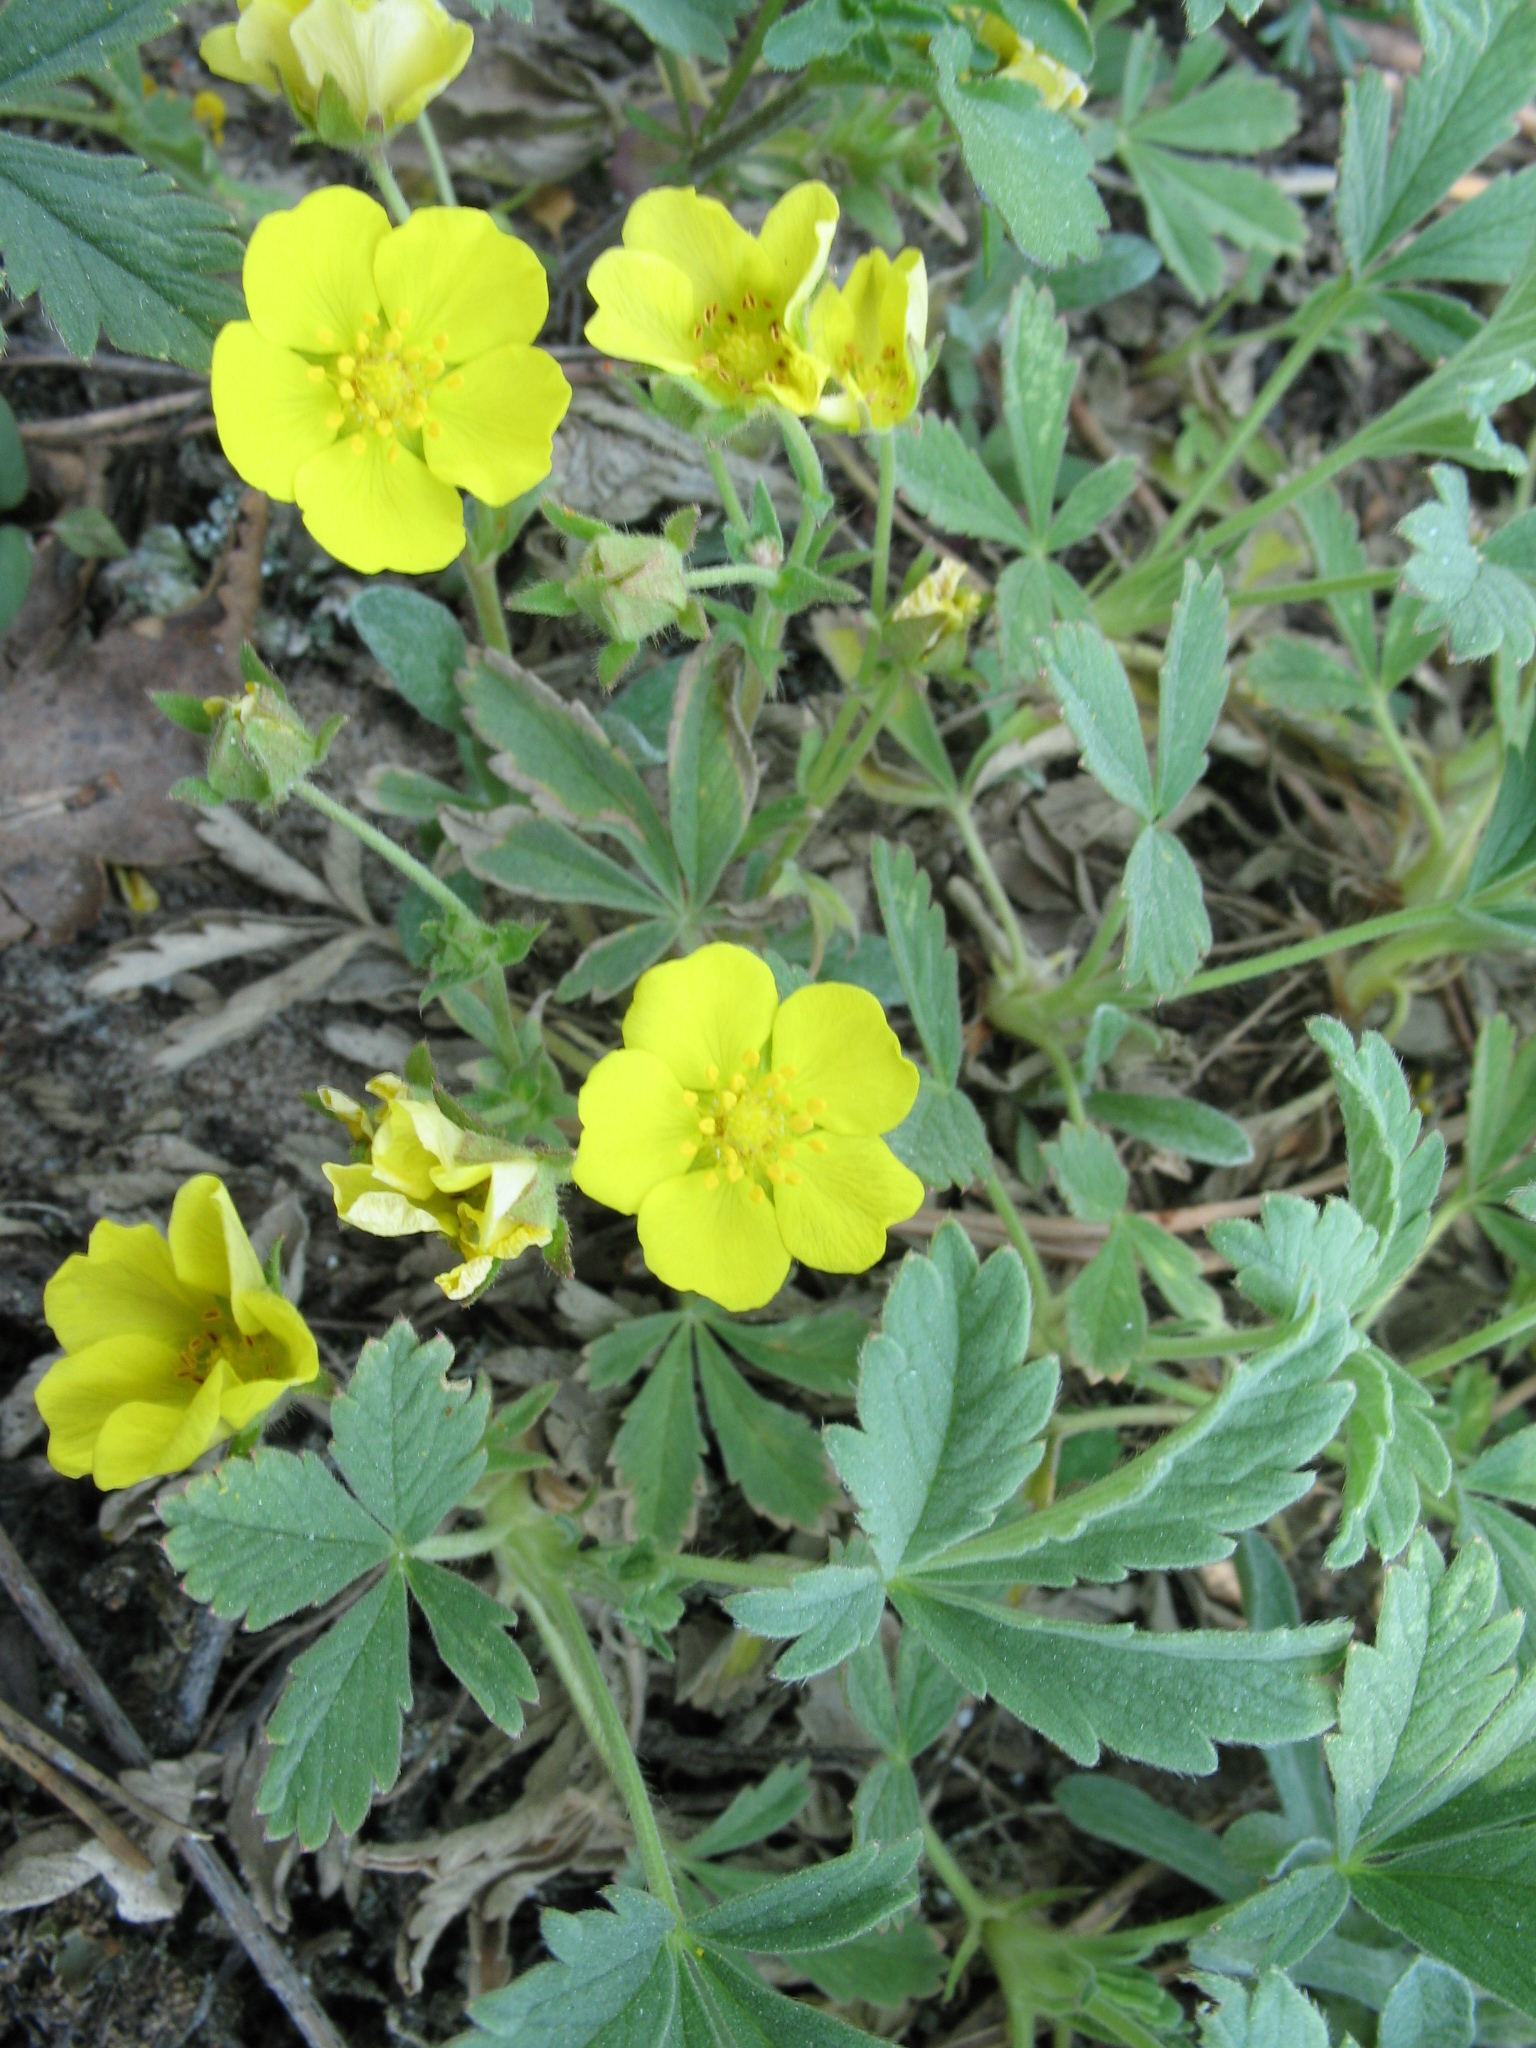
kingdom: Plantae
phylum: Tracheophyta
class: Magnoliopsida
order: Rosales
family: Rosaceae
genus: Potentilla
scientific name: Potentilla incana
